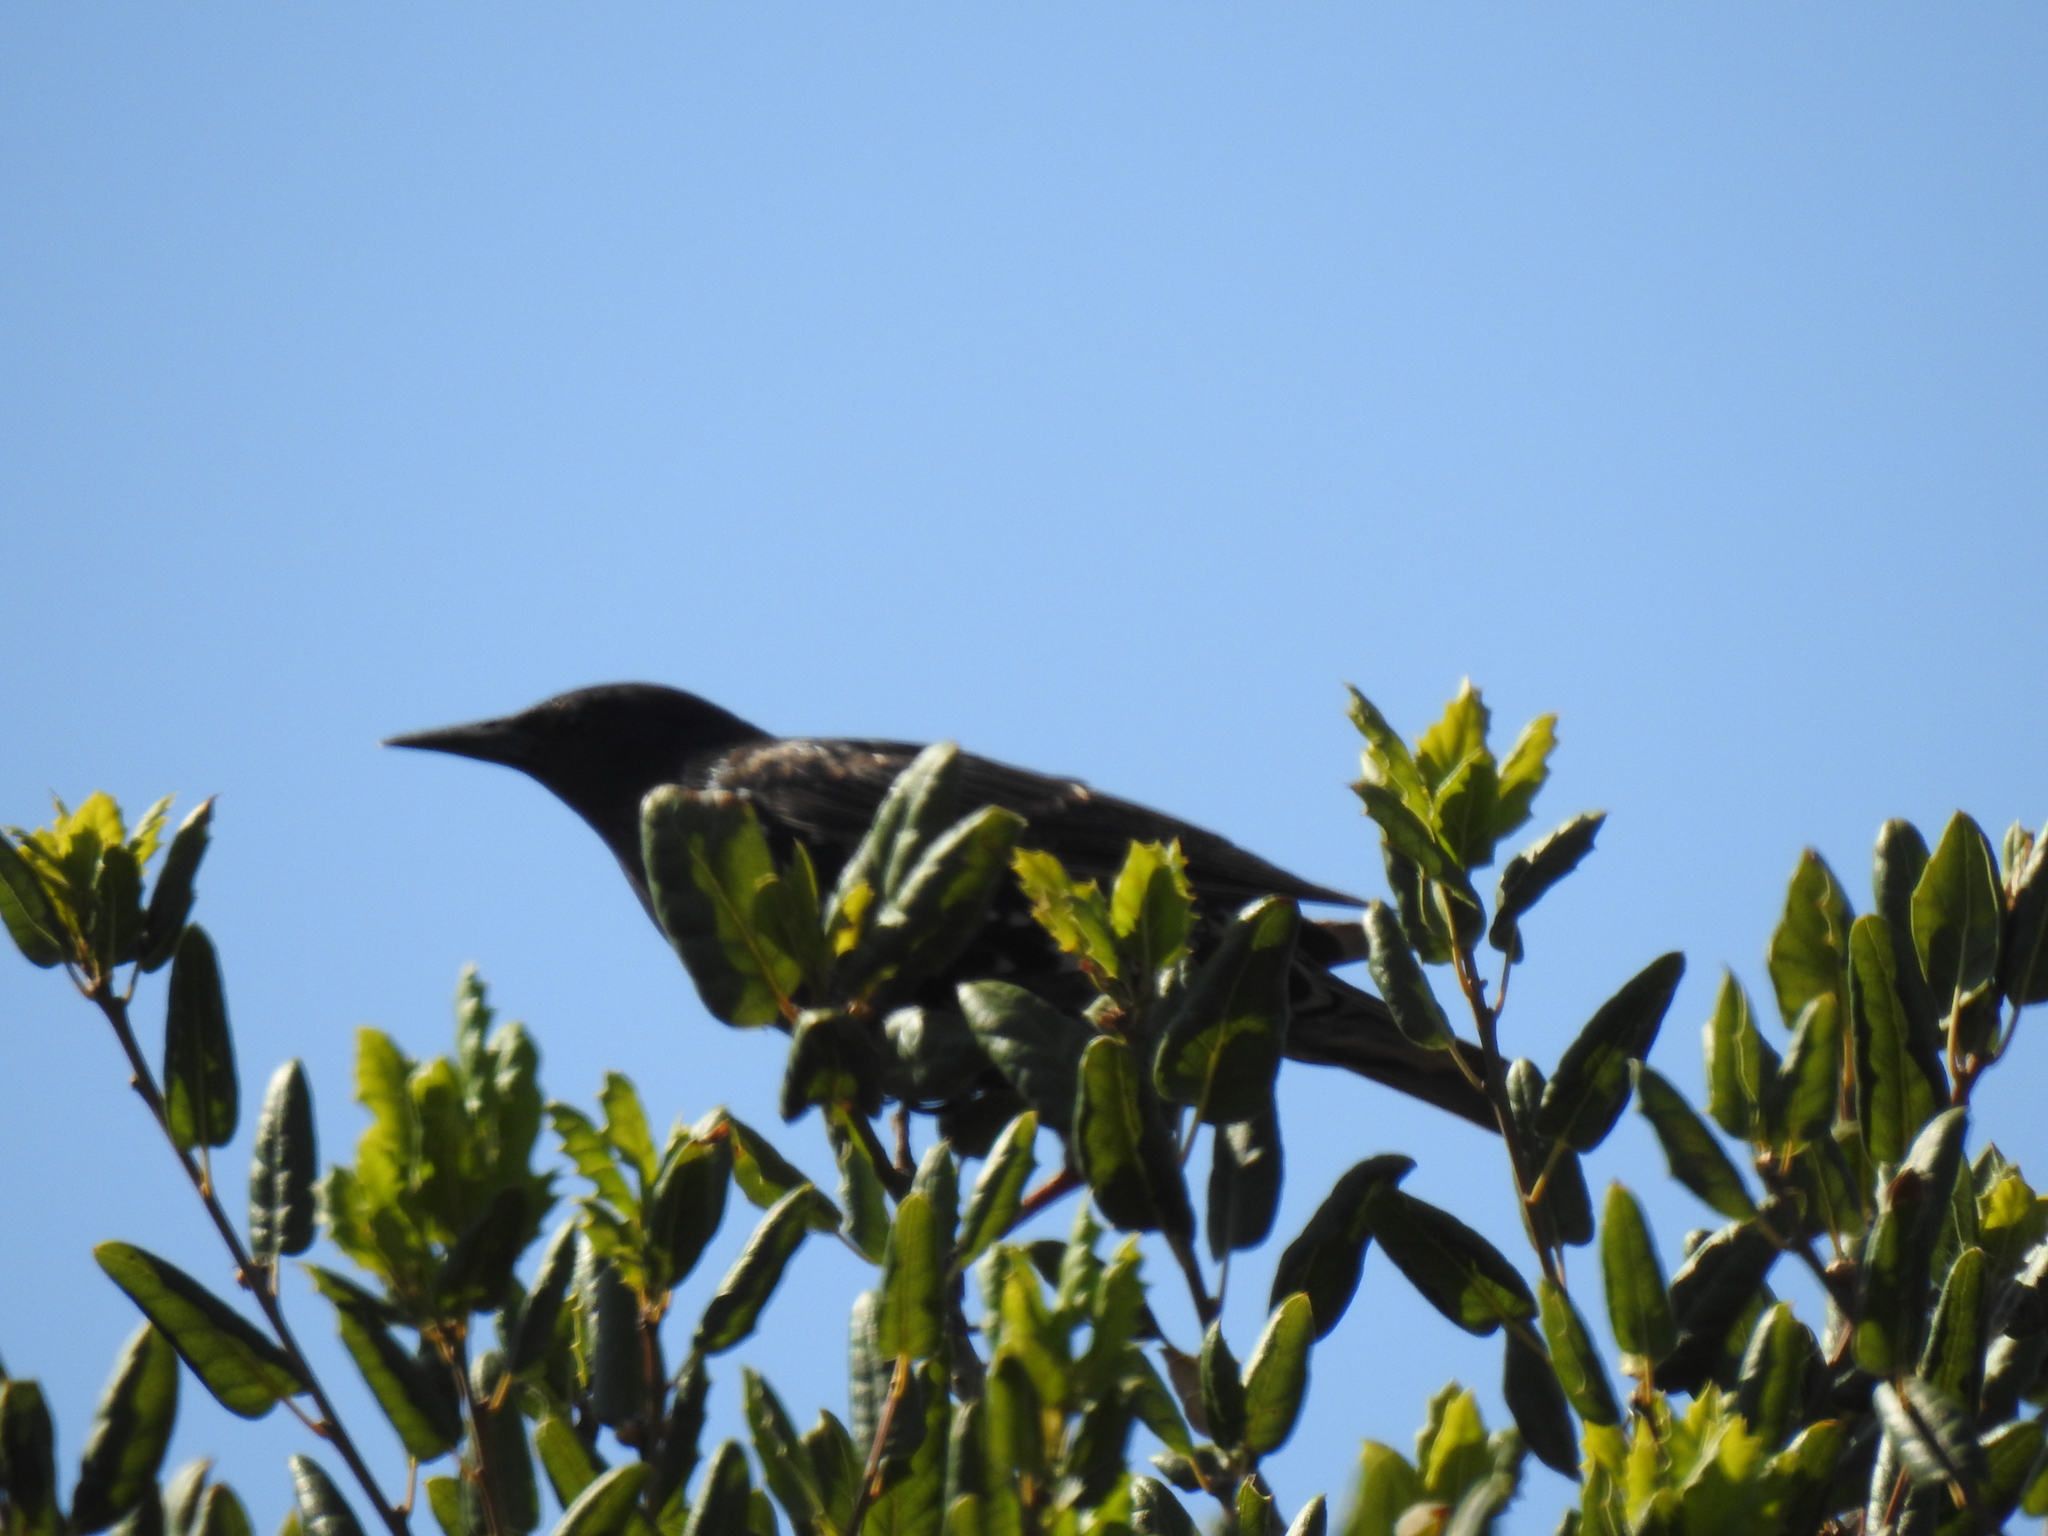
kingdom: Animalia
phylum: Chordata
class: Aves
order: Passeriformes
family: Sturnidae
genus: Sturnus
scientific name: Sturnus vulgaris
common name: Common starling
